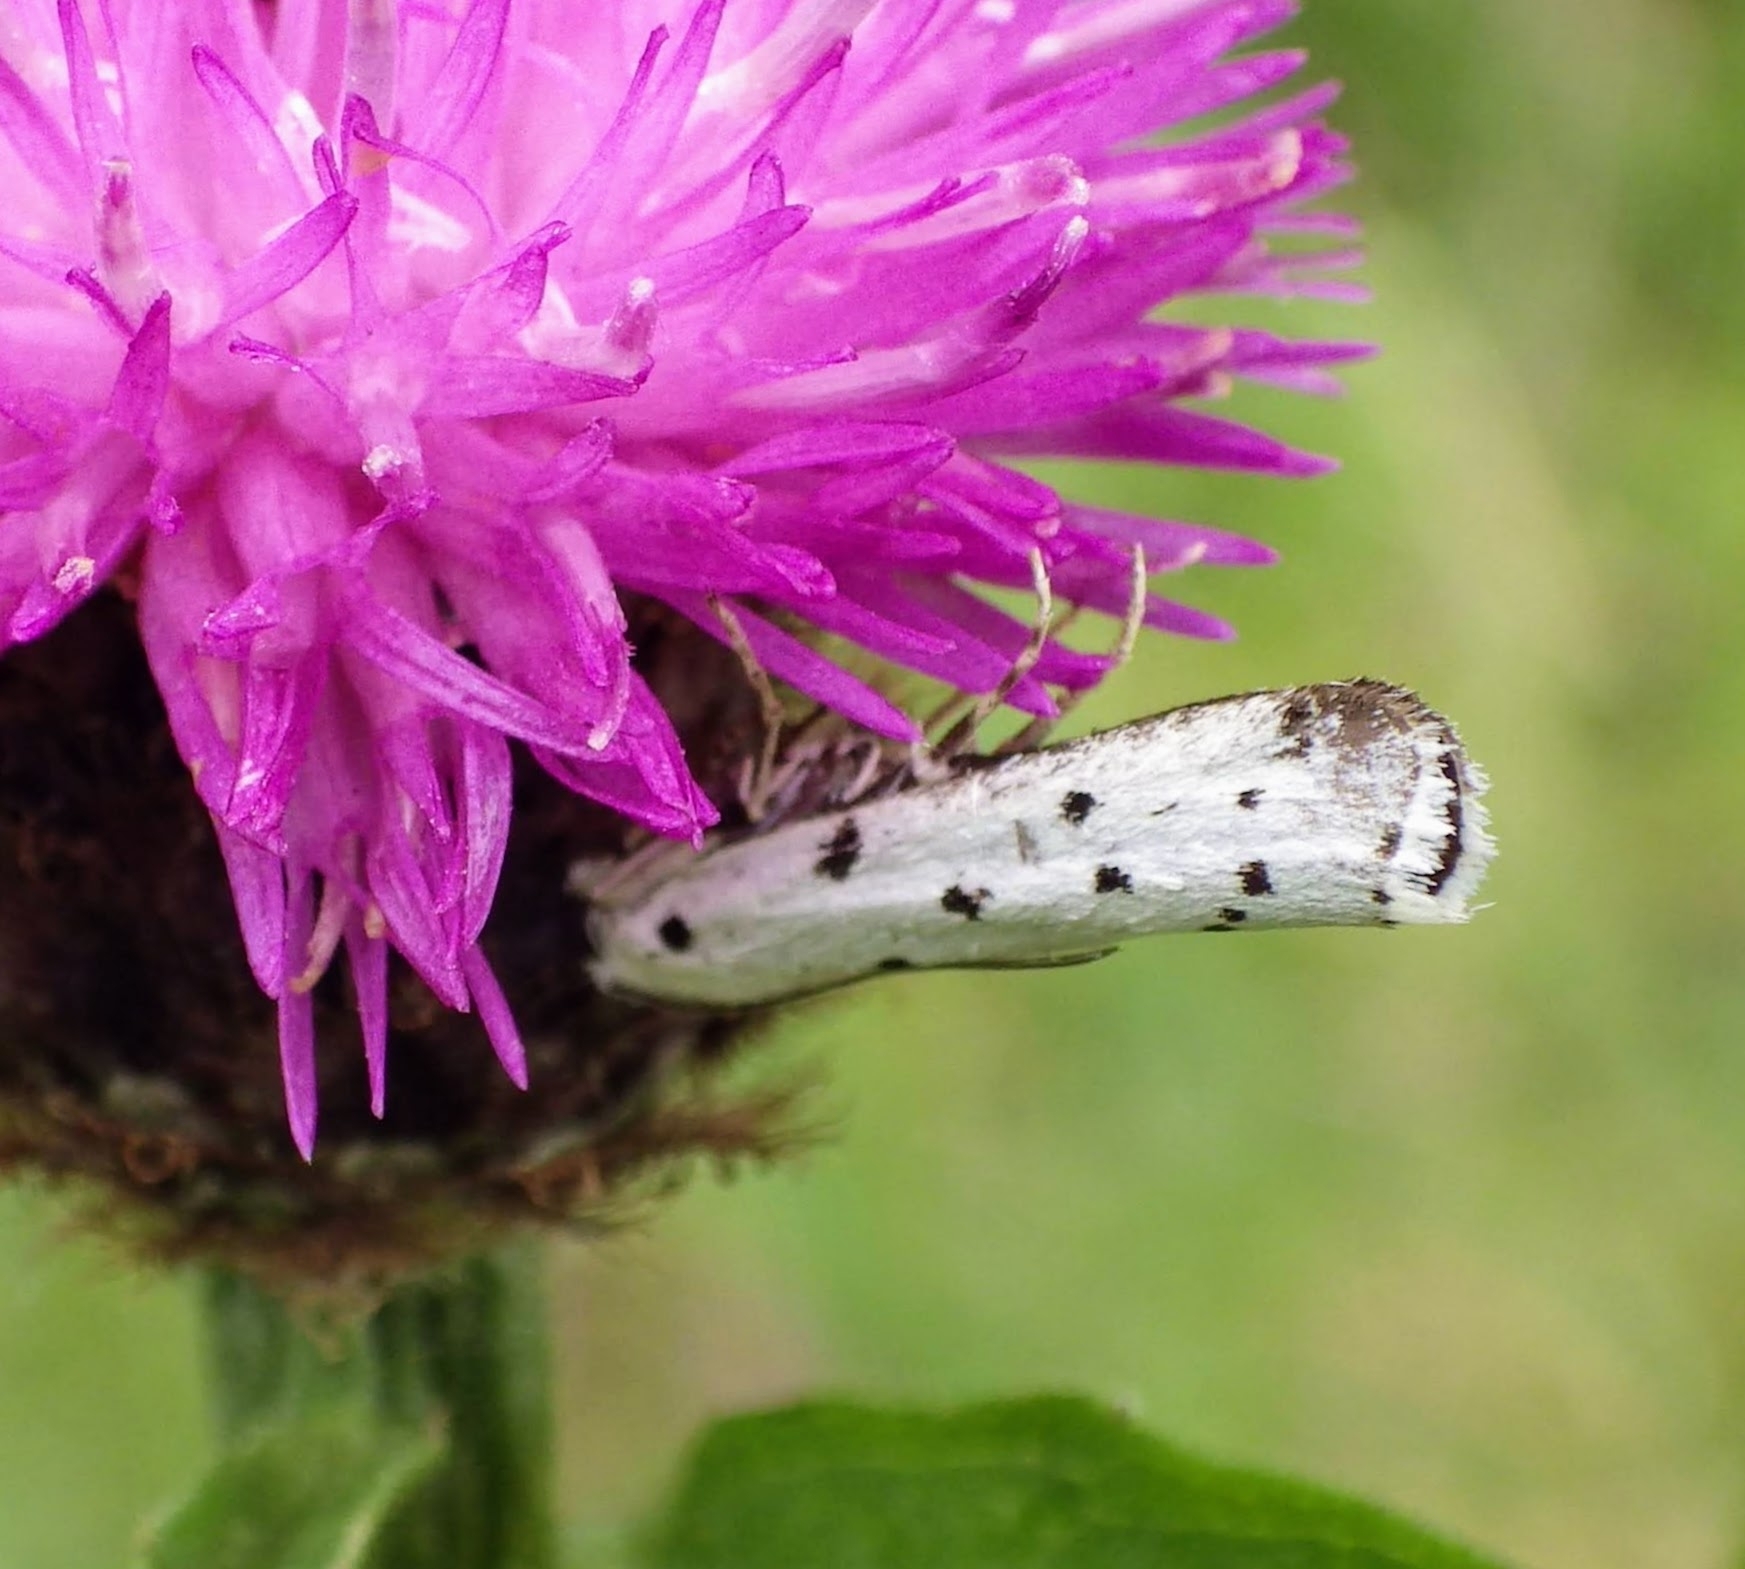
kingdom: Animalia
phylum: Arthropoda
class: Insecta
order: Lepidoptera
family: Pyralidae
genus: Myelois
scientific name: Myelois circumvoluta
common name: Thistle ermine
